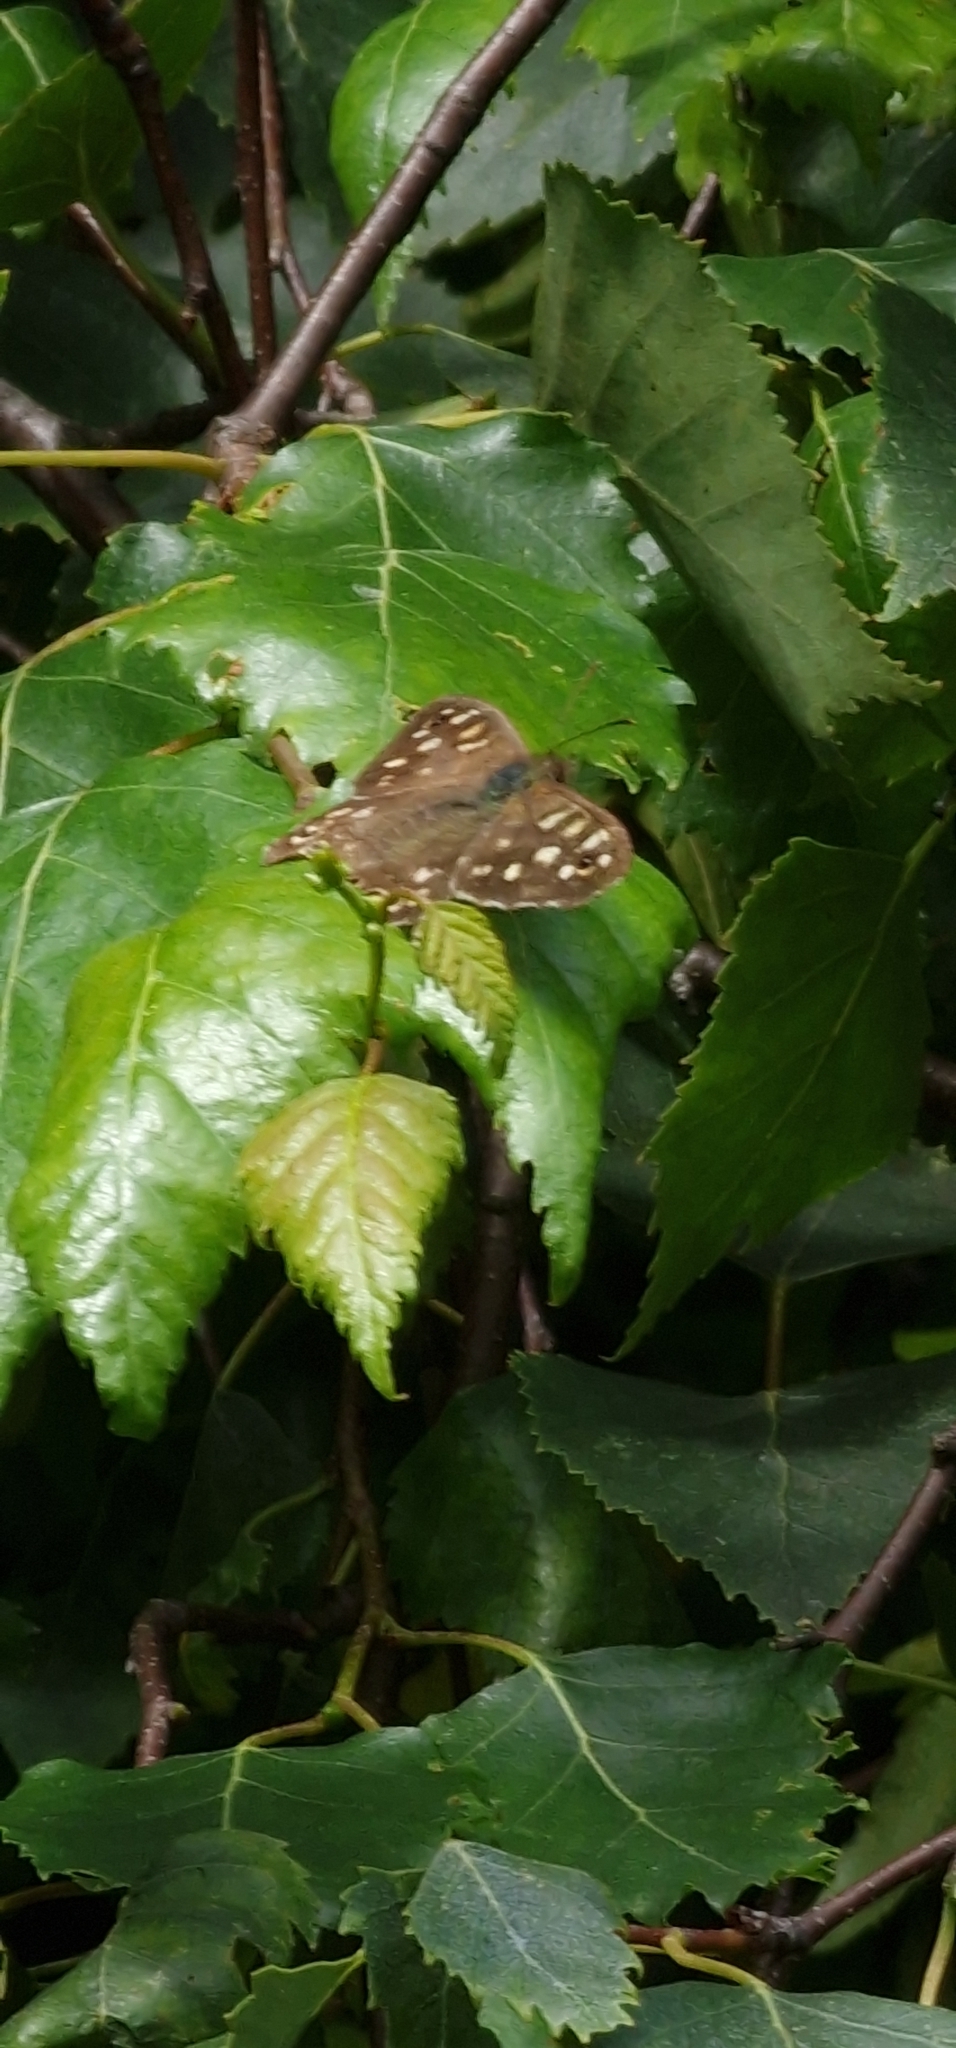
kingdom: Animalia
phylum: Arthropoda
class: Insecta
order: Lepidoptera
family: Nymphalidae
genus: Pararge
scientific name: Pararge aegeria
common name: Speckled wood
